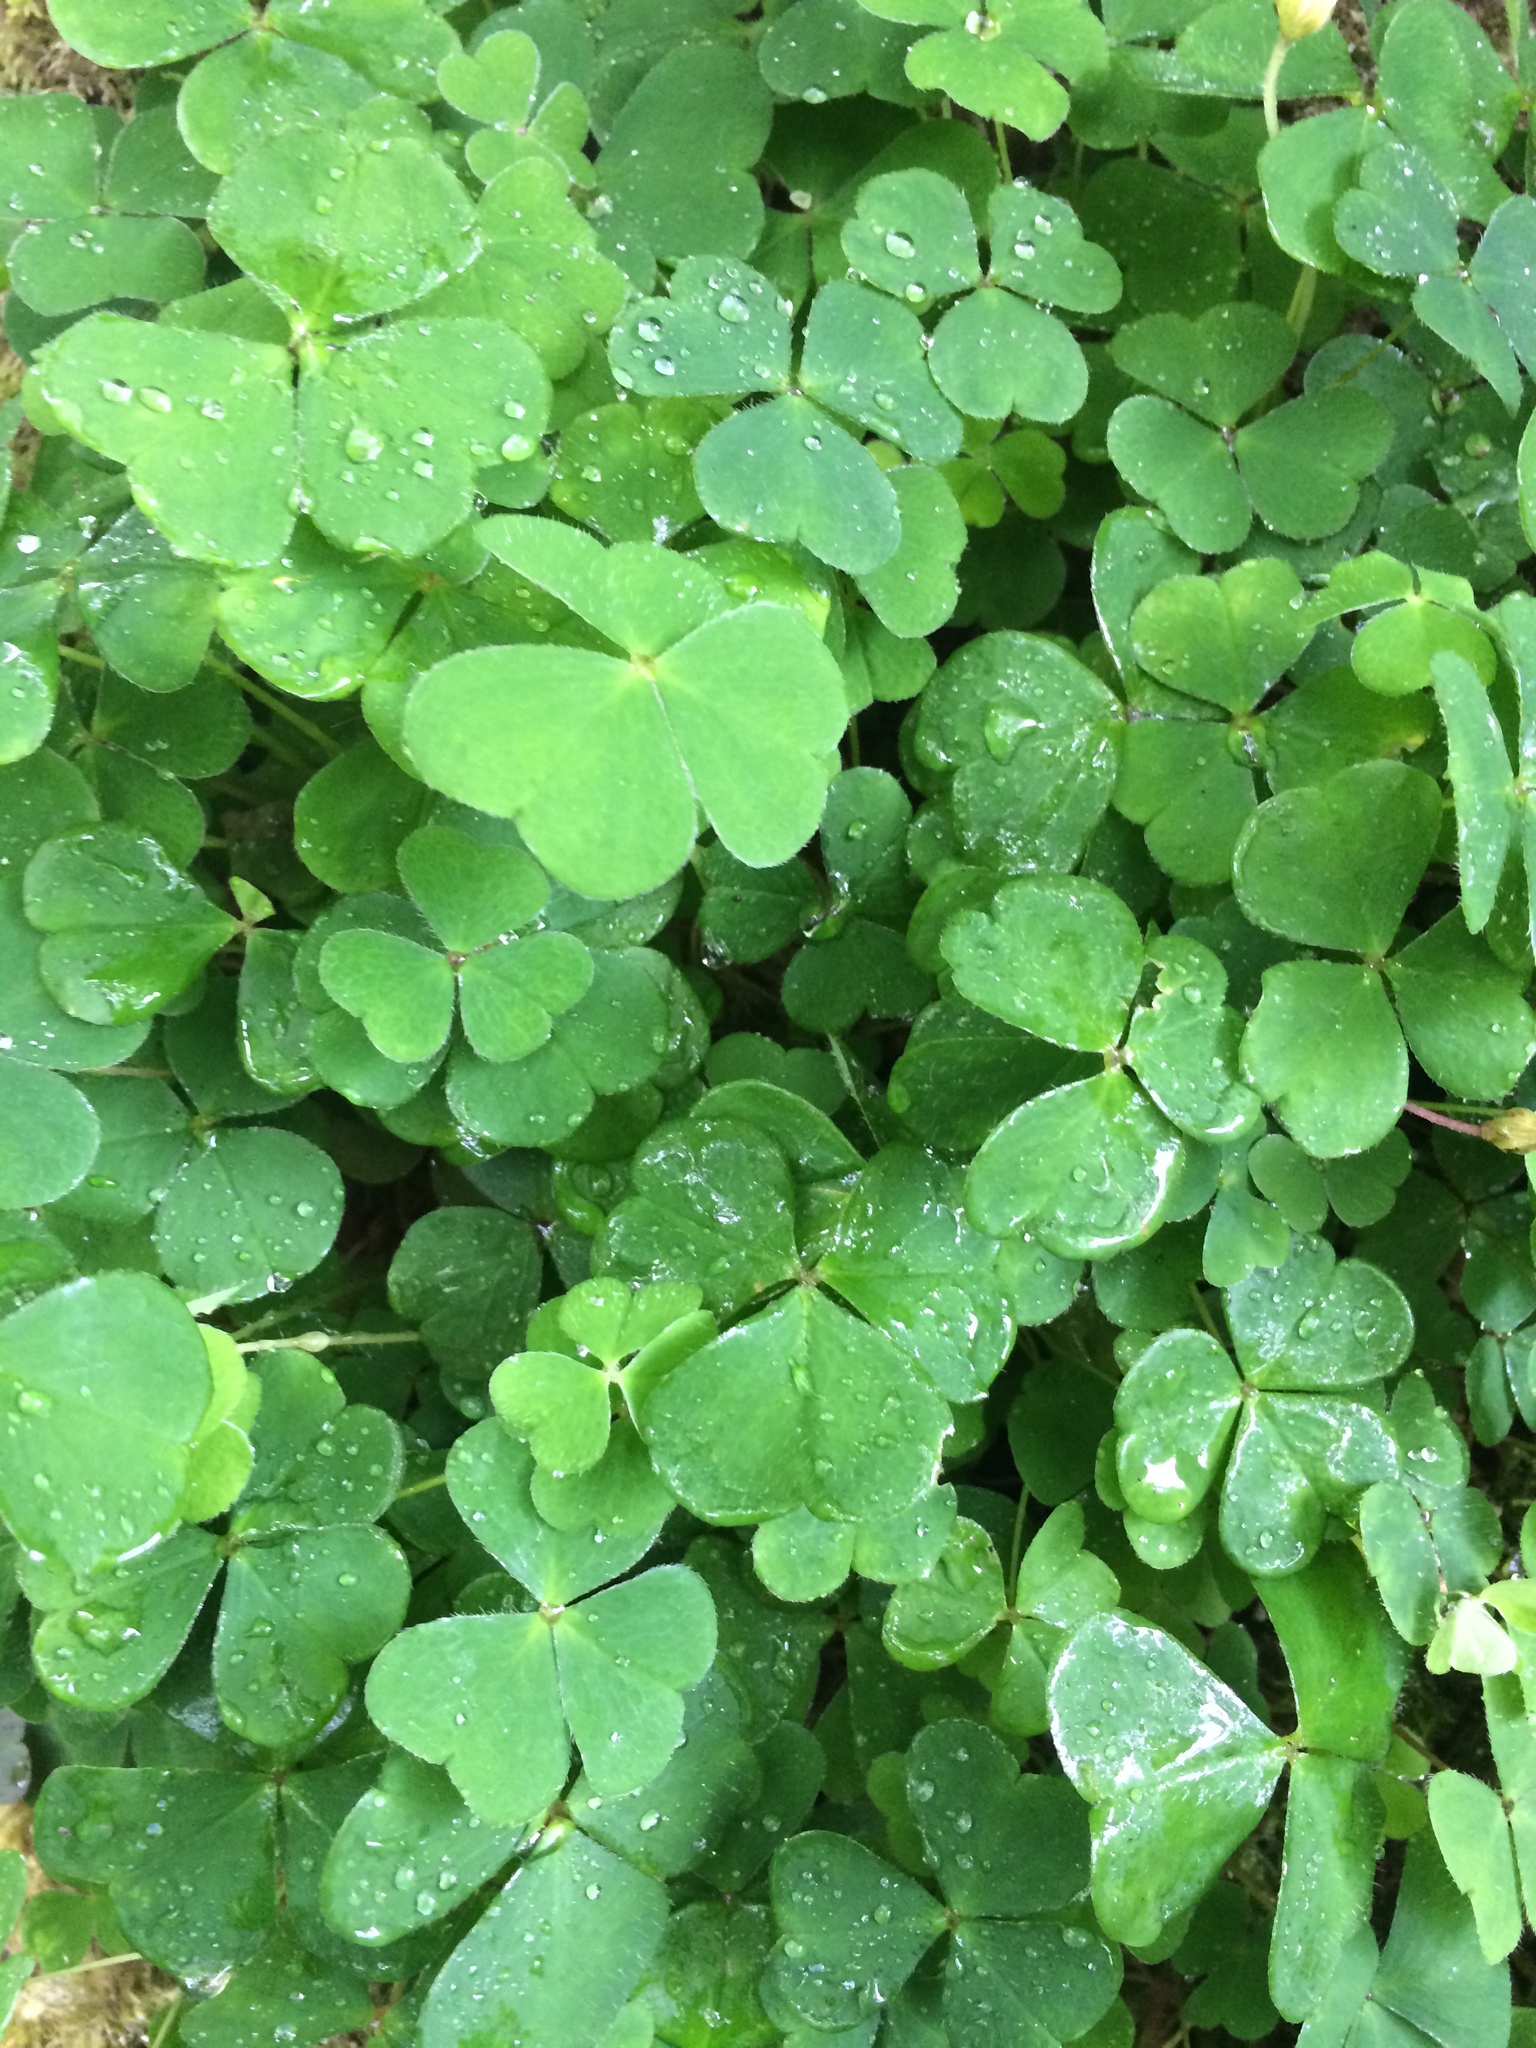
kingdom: Plantae
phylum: Tracheophyta
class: Magnoliopsida
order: Oxalidales
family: Oxalidaceae
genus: Oxalis
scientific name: Oxalis acetosella
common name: Wood-sorrel
